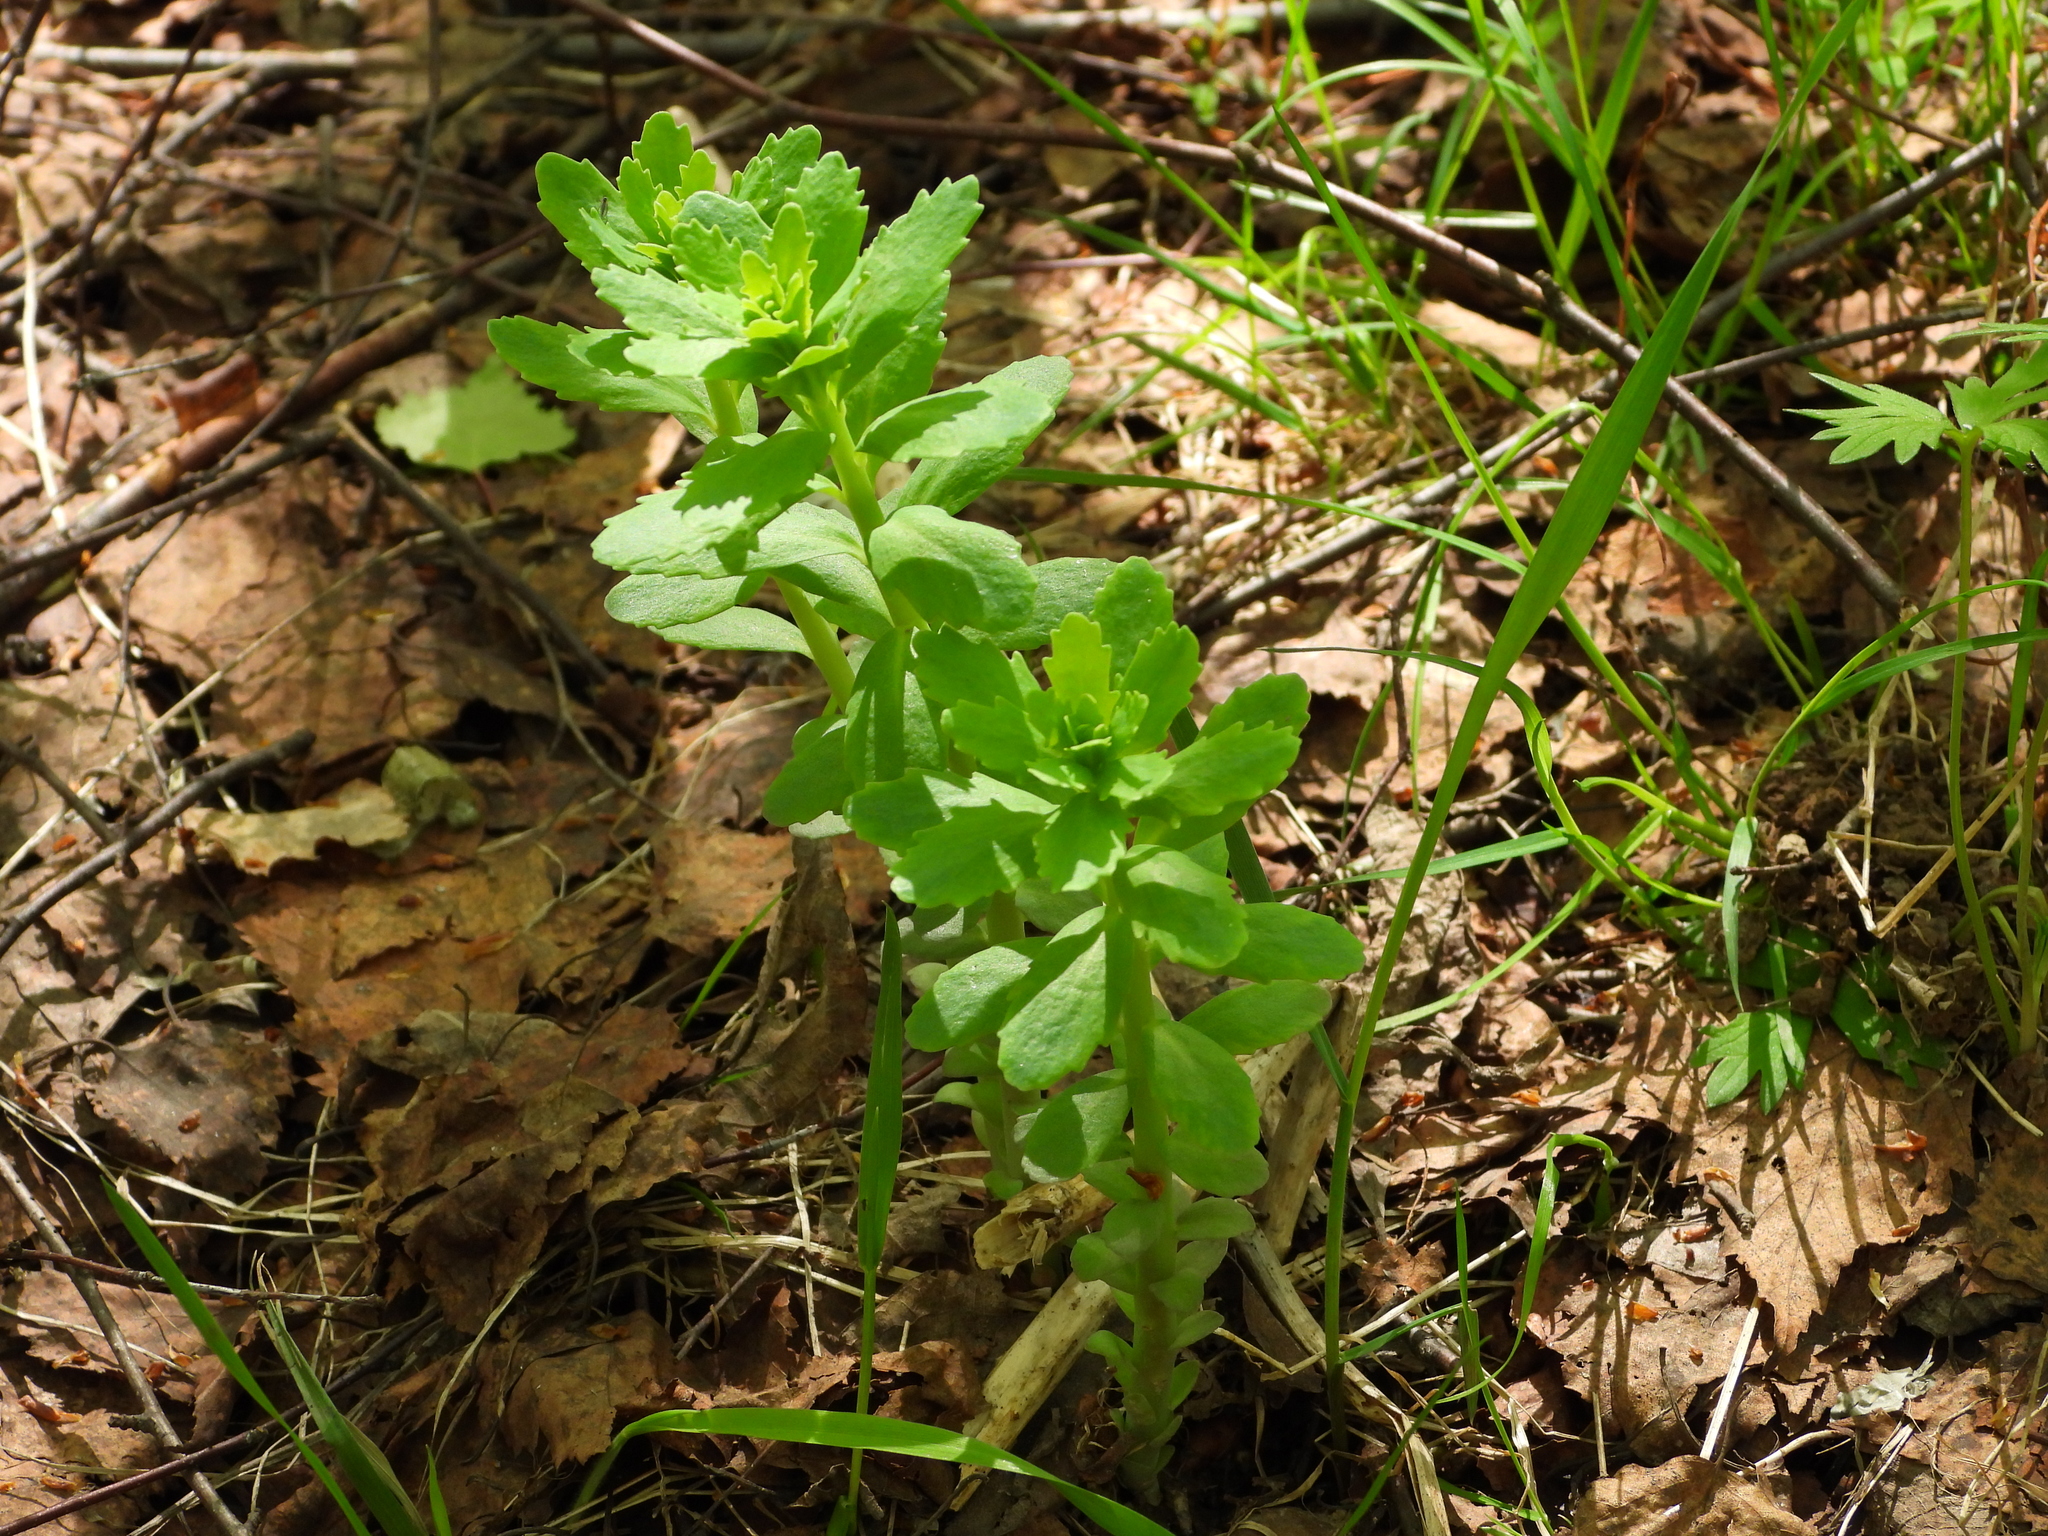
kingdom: Plantae
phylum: Tracheophyta
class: Magnoliopsida
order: Saxifragales
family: Crassulaceae
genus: Hylotelephium
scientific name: Hylotelephium telephium
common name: Live-forever
